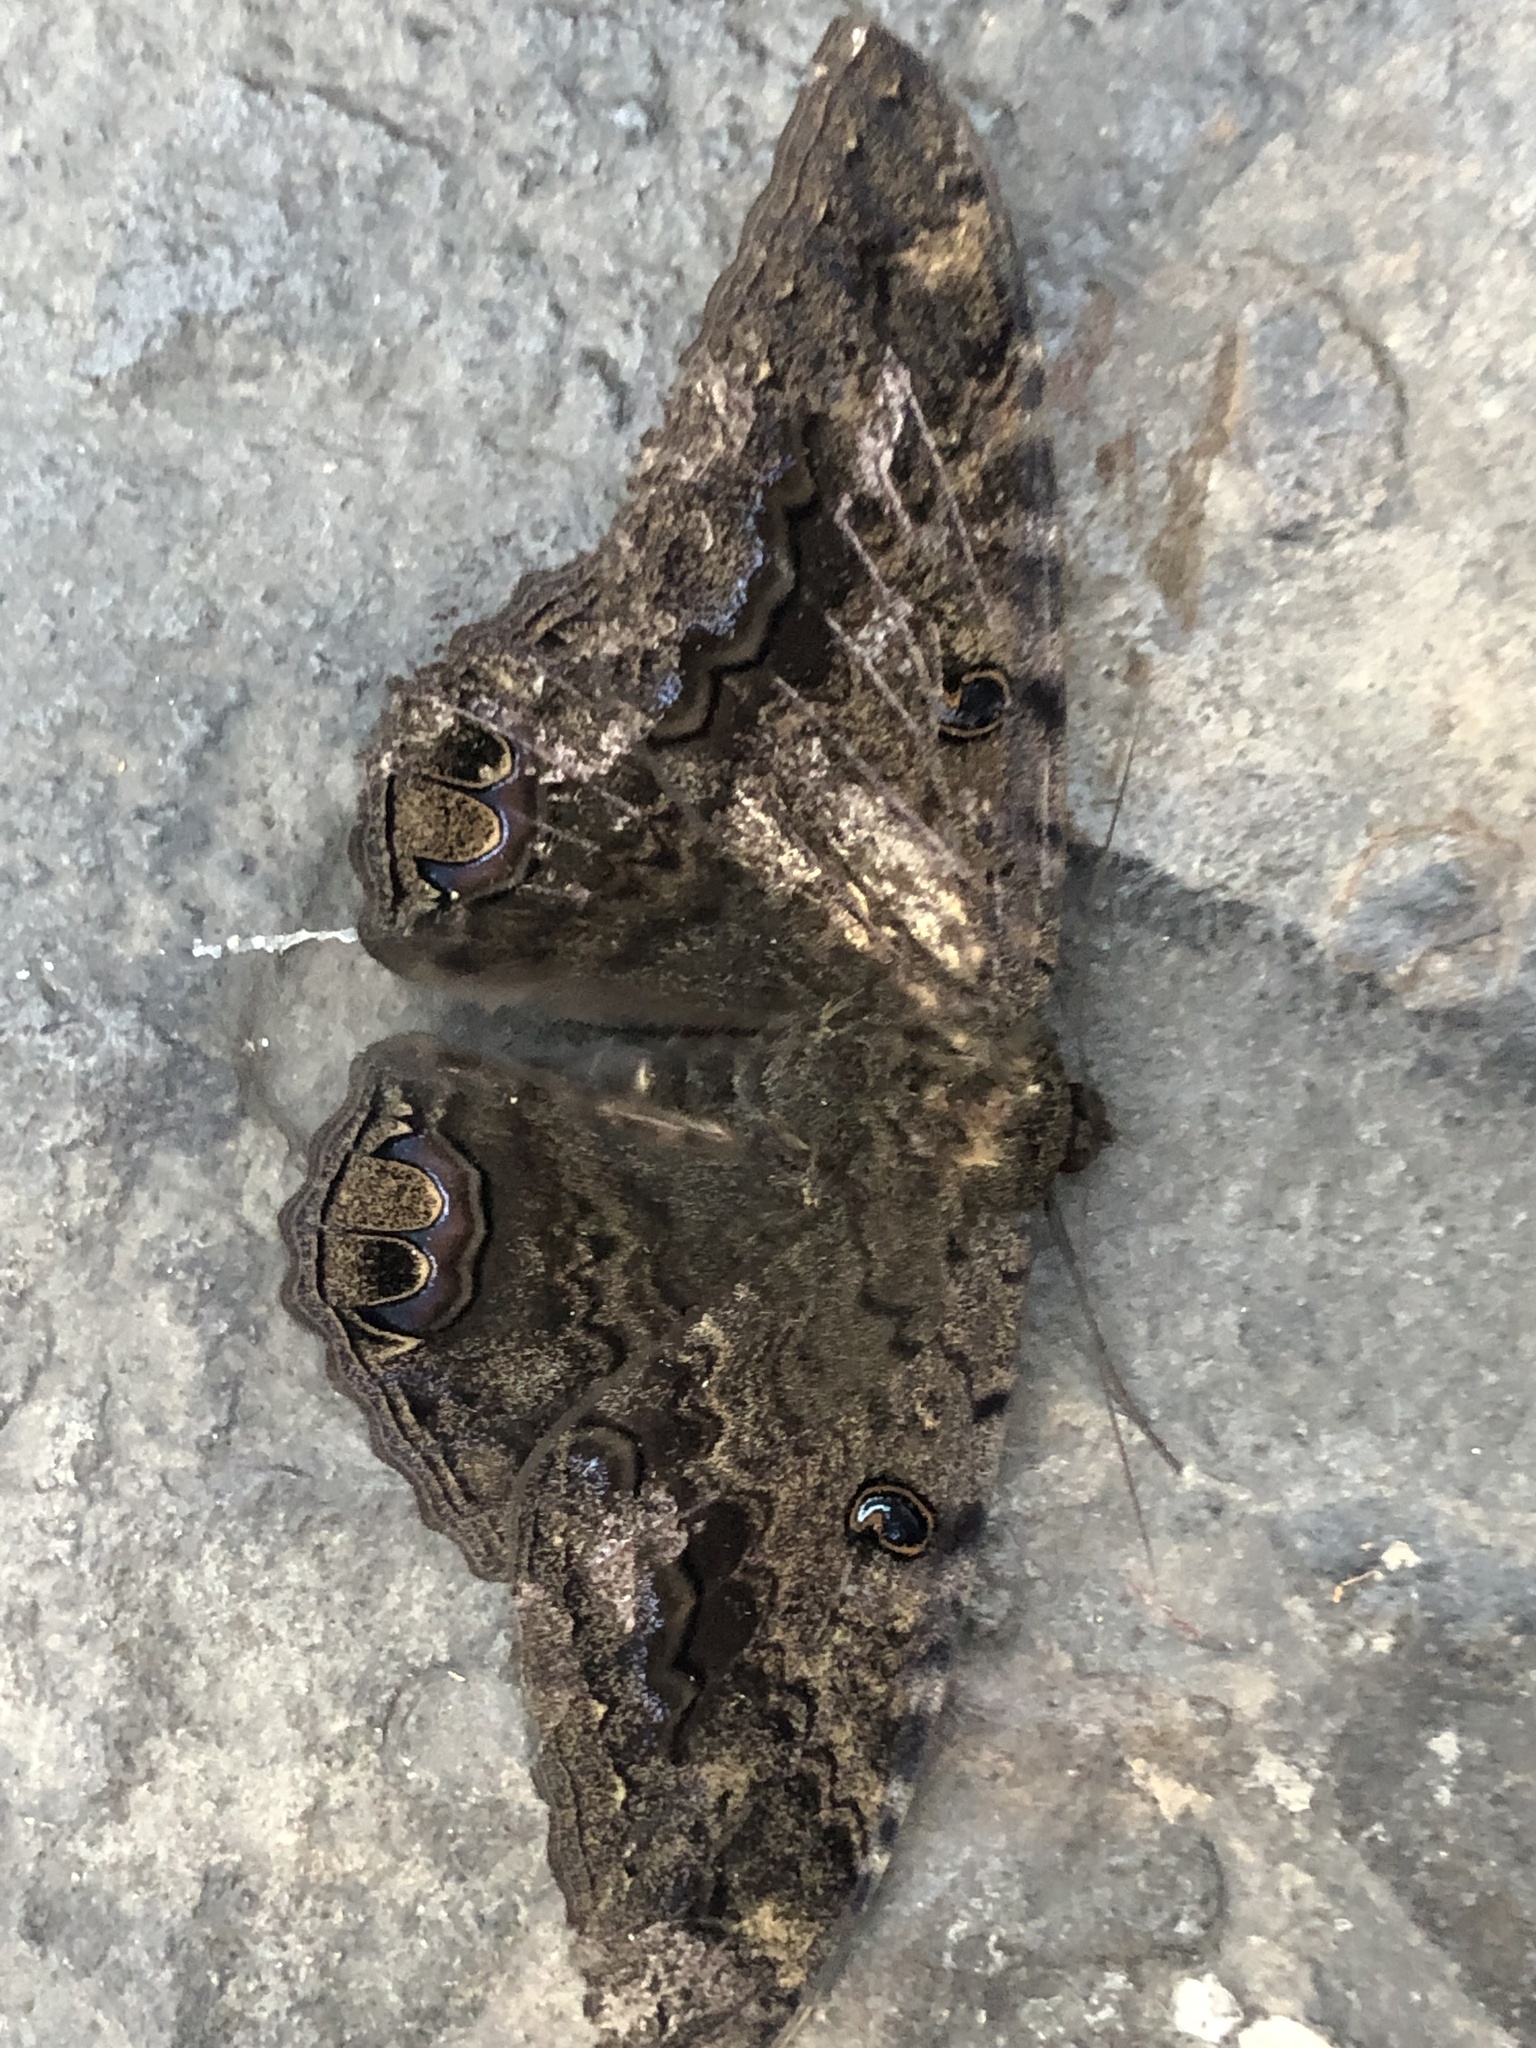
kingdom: Animalia
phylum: Arthropoda
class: Insecta
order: Lepidoptera
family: Erebidae
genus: Ascalapha
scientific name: Ascalapha odorata
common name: Black witch
